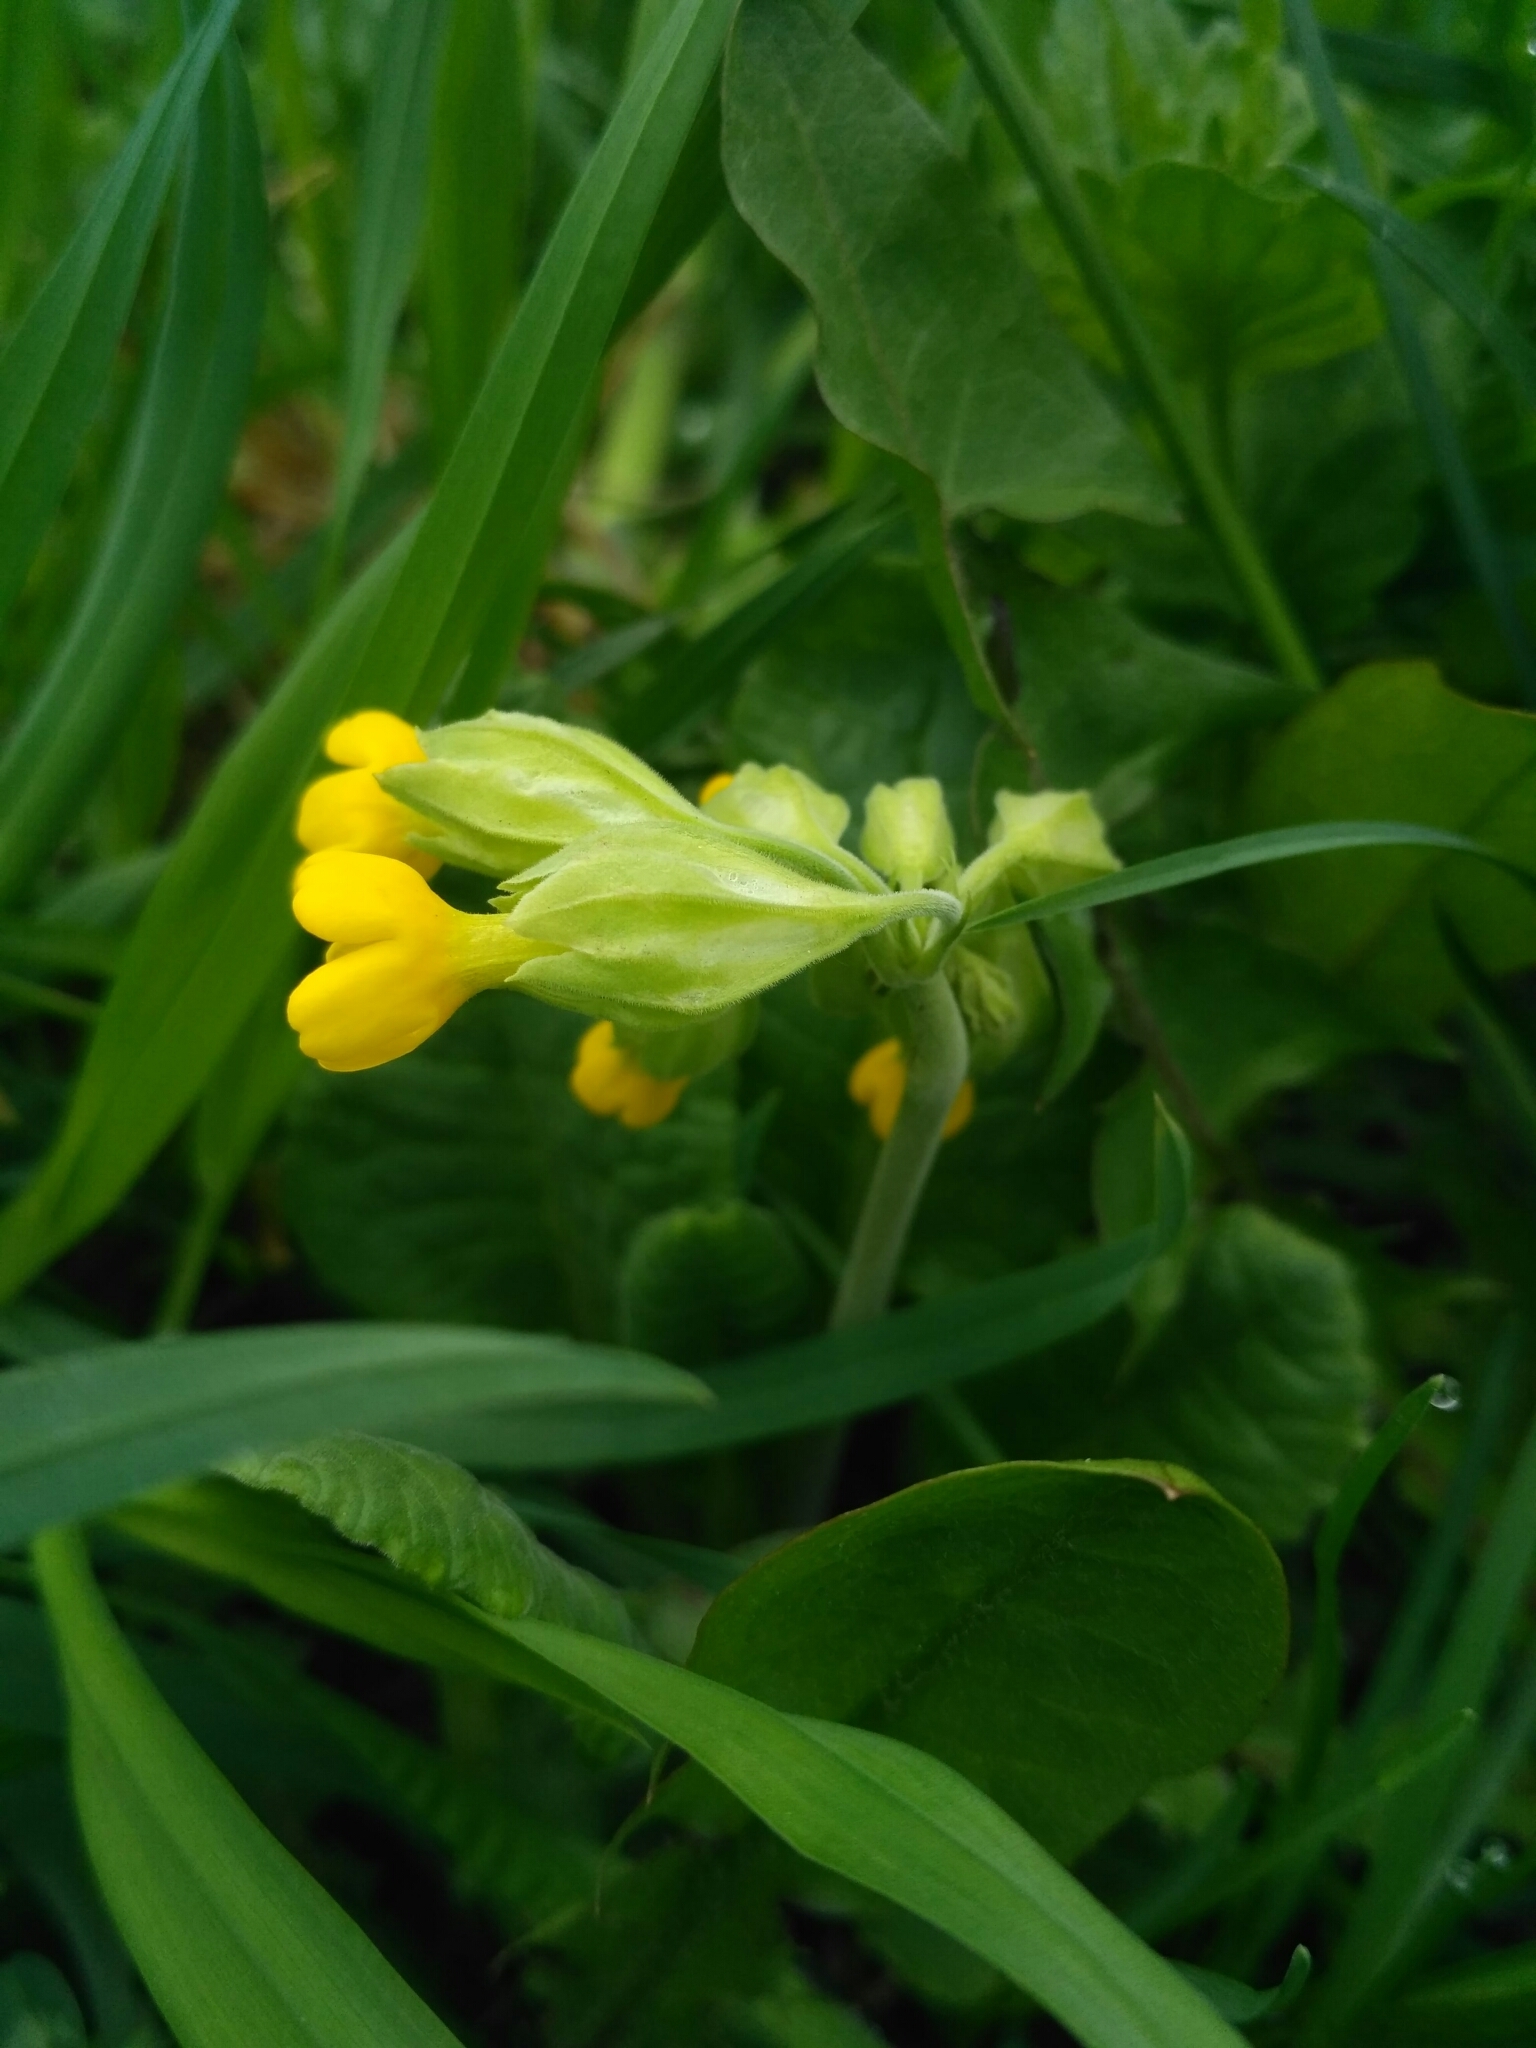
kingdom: Plantae
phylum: Tracheophyta
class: Magnoliopsida
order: Ericales
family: Primulaceae
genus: Primula
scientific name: Primula veris
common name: Cowslip
